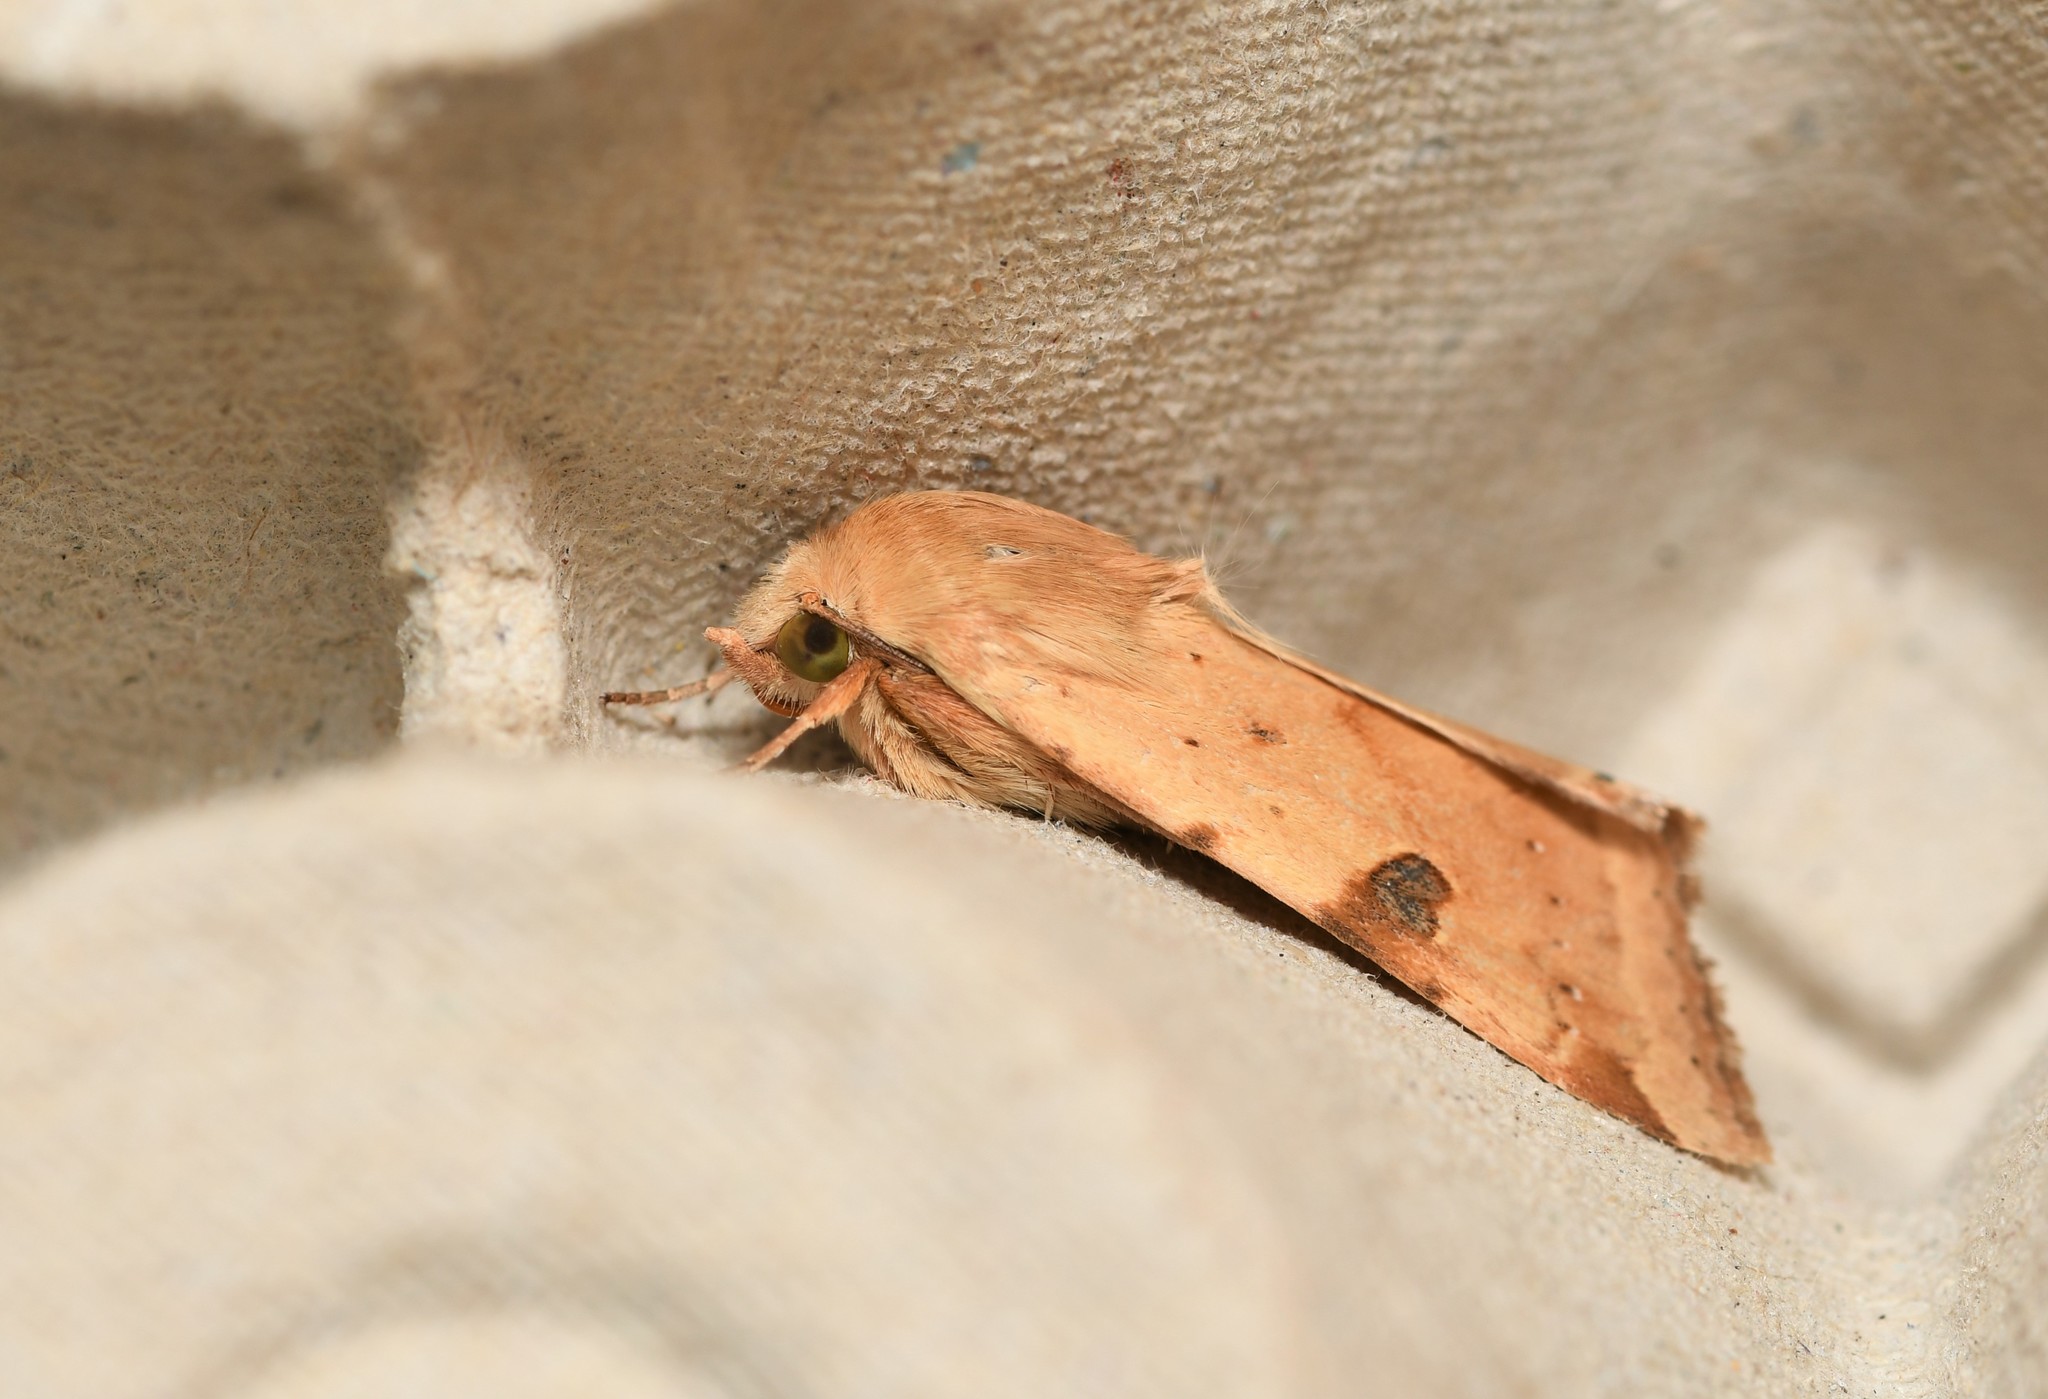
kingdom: Animalia
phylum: Arthropoda
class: Insecta
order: Lepidoptera
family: Noctuidae
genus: Heliothis
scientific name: Heliothis peltigera
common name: Bordered straw
